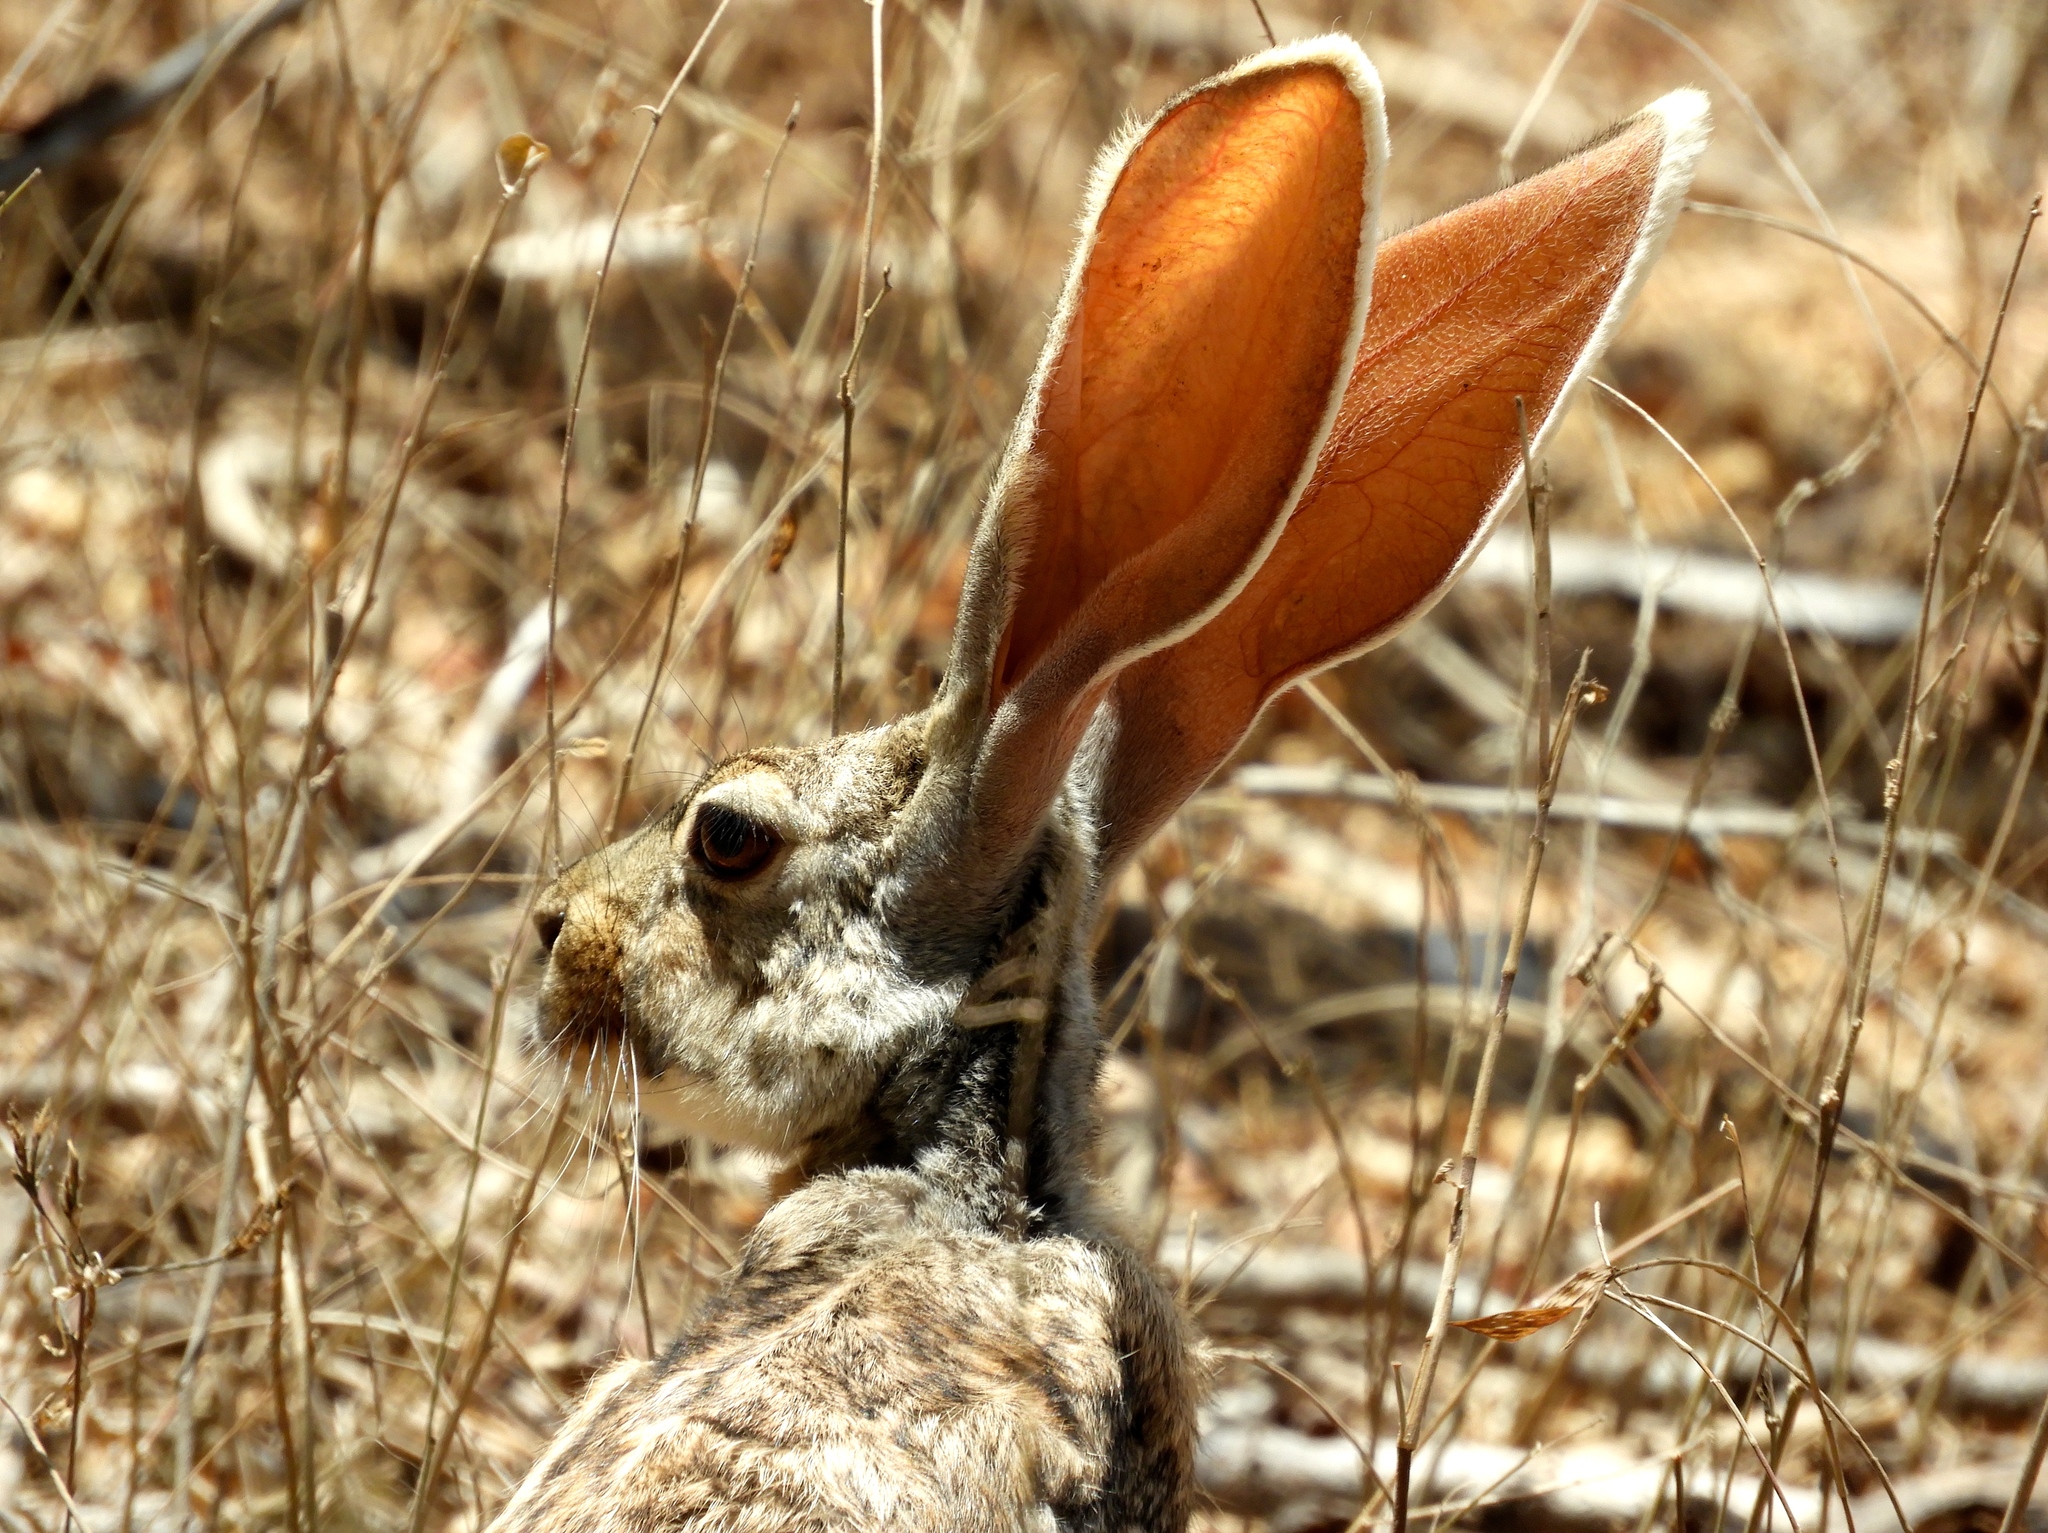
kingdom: Animalia
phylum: Chordata
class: Mammalia
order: Lagomorpha
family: Leporidae
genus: Lepus
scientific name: Lepus alleni
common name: Antelope jackrabbit
